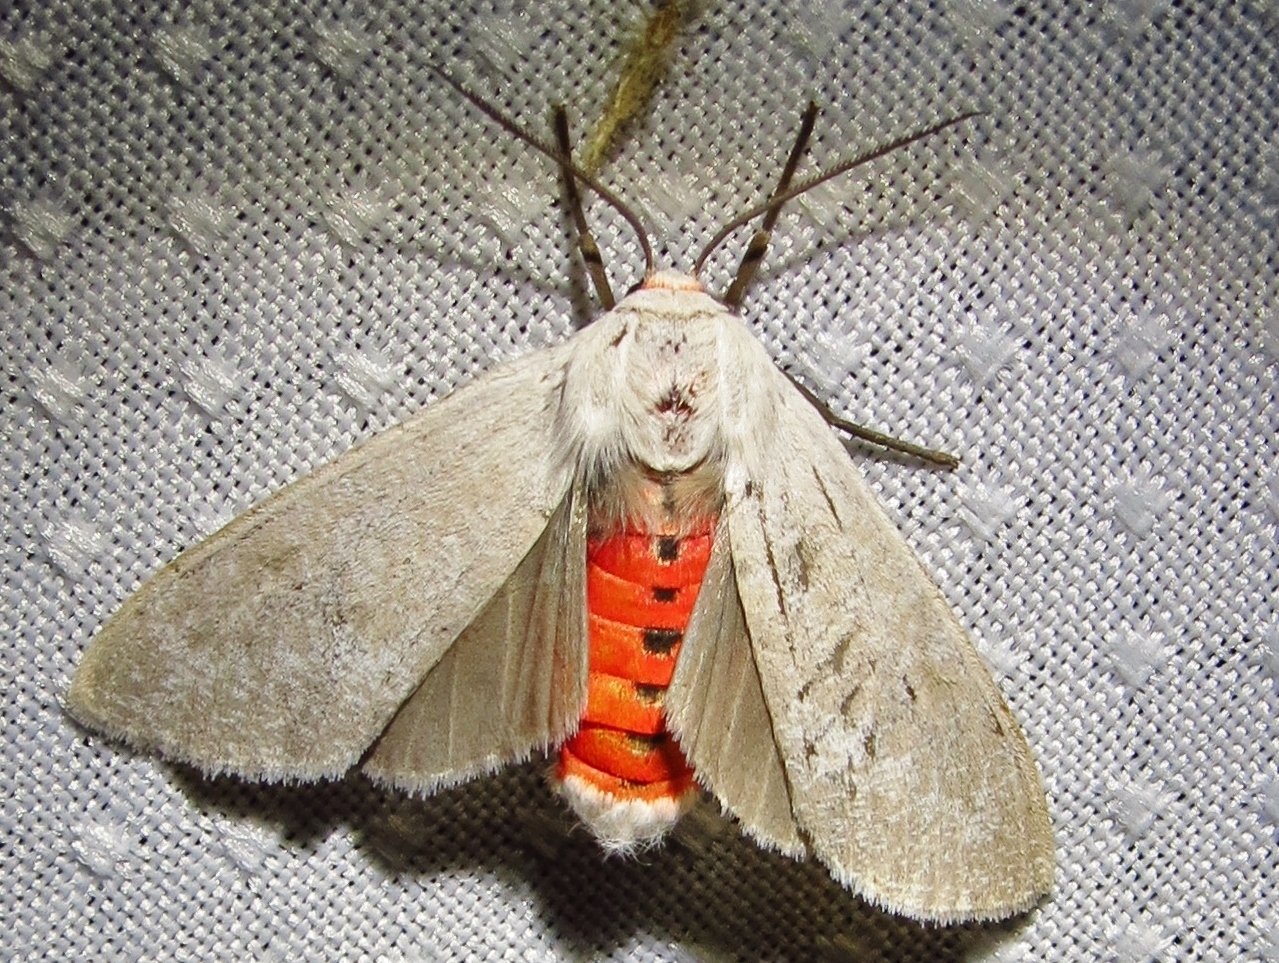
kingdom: Animalia
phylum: Arthropoda
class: Insecta
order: Lepidoptera
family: Erebidae
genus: Euchaetes
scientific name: Euchaetes bolteri
